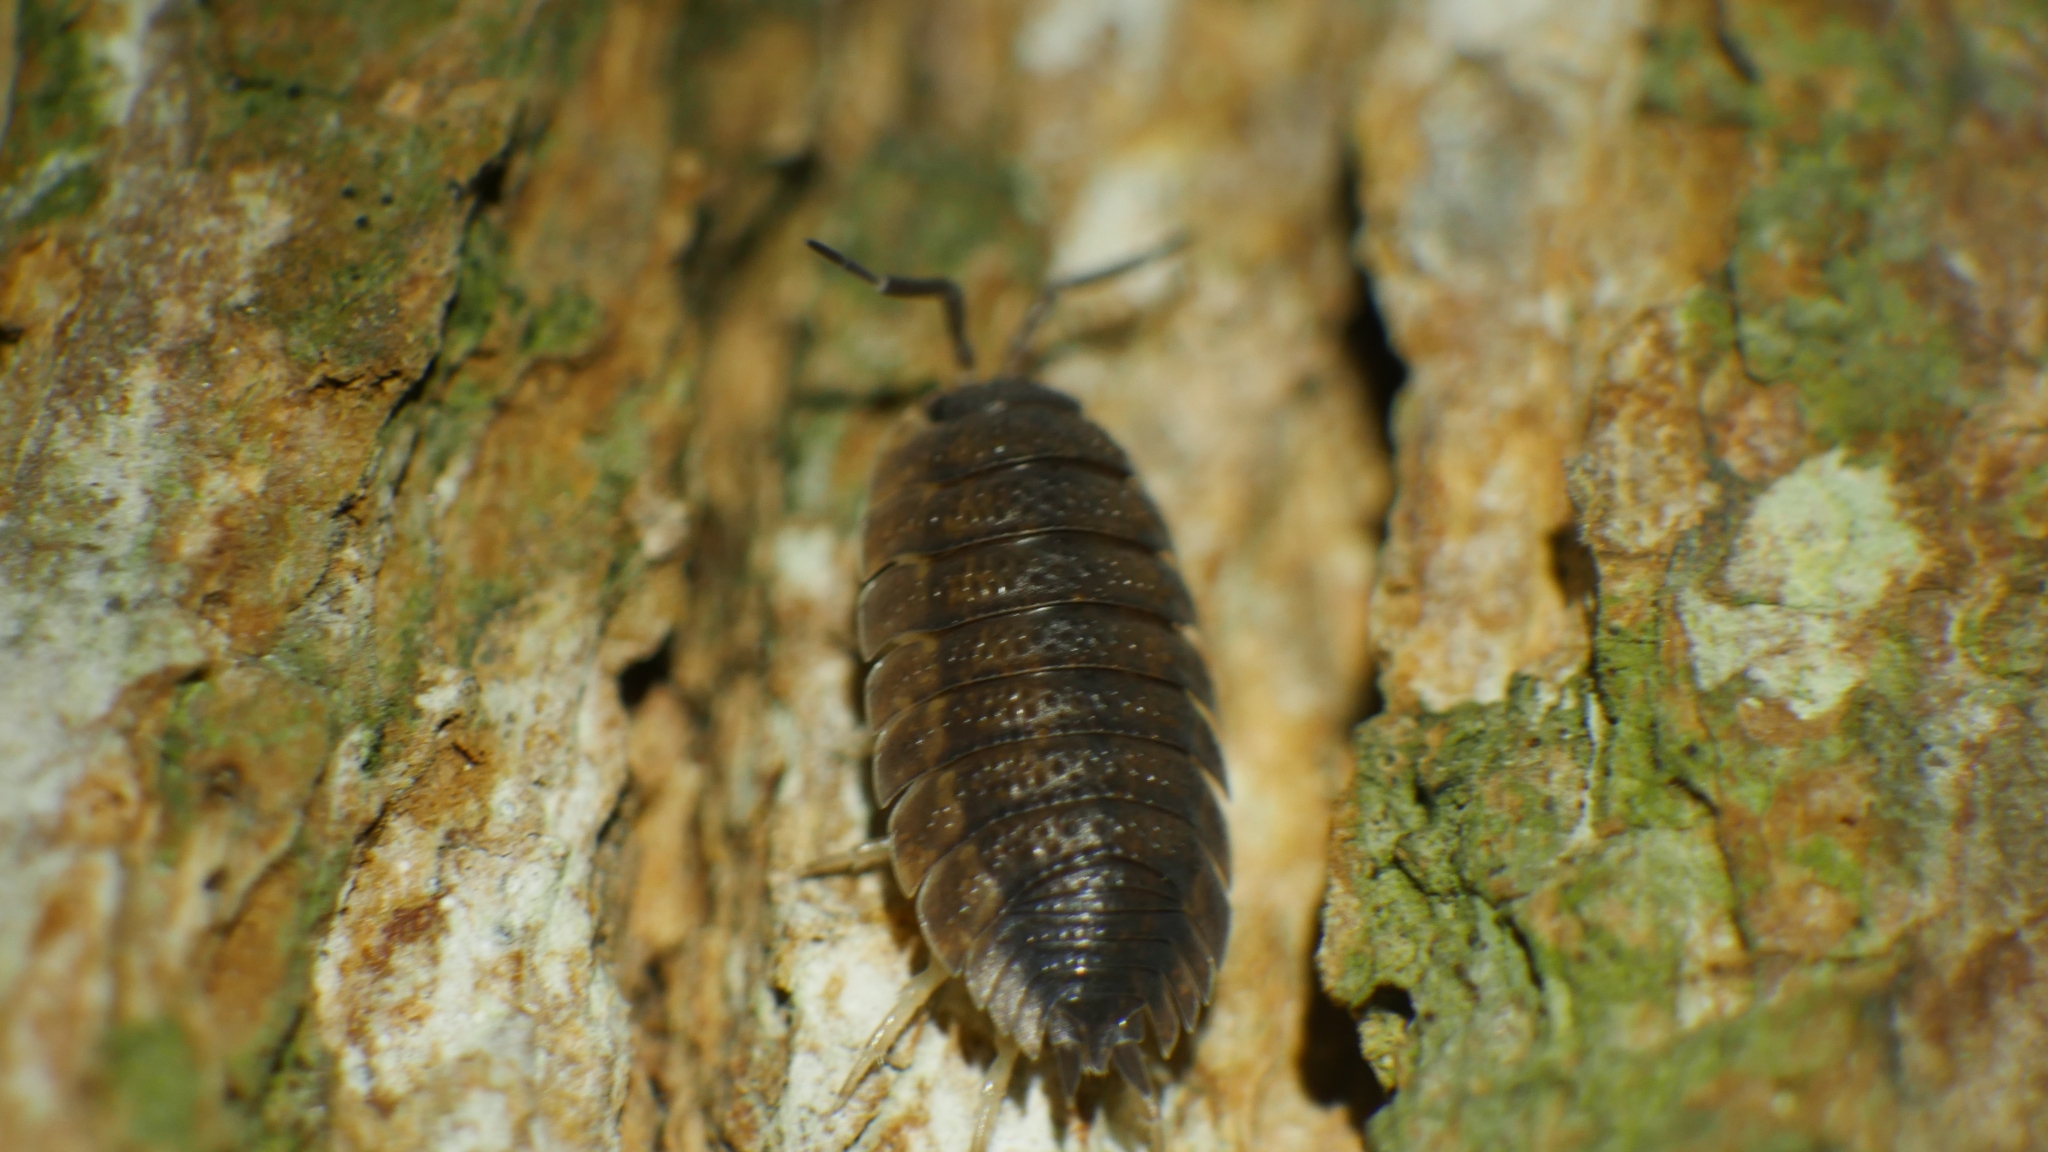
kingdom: Animalia
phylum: Arthropoda
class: Malacostraca
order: Isopoda
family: Porcellionidae
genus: Porcellio
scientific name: Porcellio scaber
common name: Common rough woodlouse
